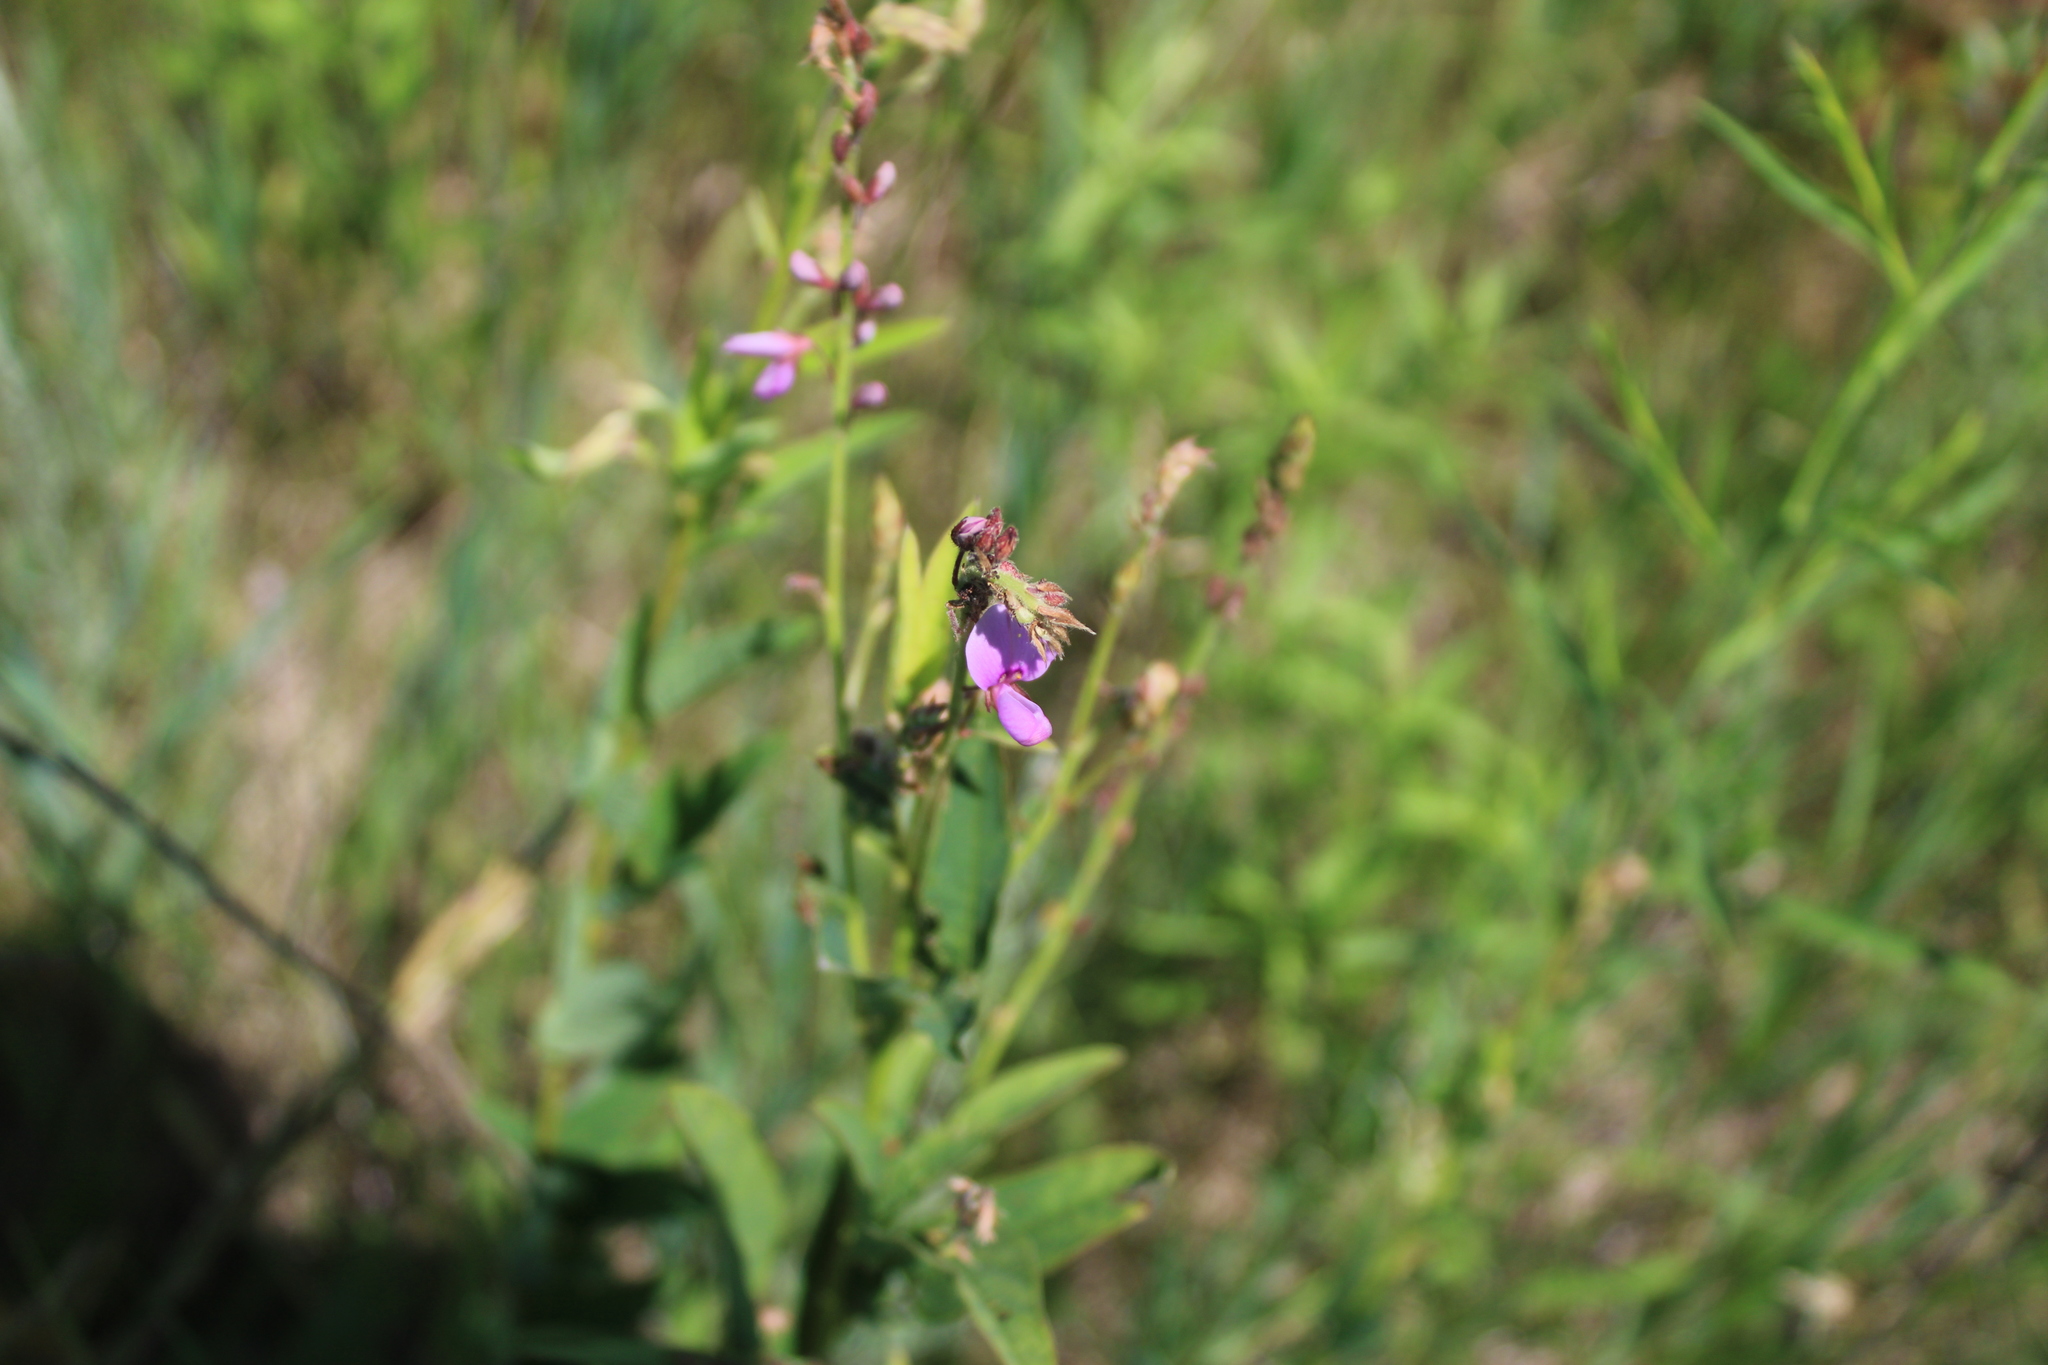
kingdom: Plantae
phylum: Tracheophyta
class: Magnoliopsida
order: Fabales
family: Fabaceae
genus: Desmodium
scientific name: Desmodium canadense
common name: Canada tick-trefoil
